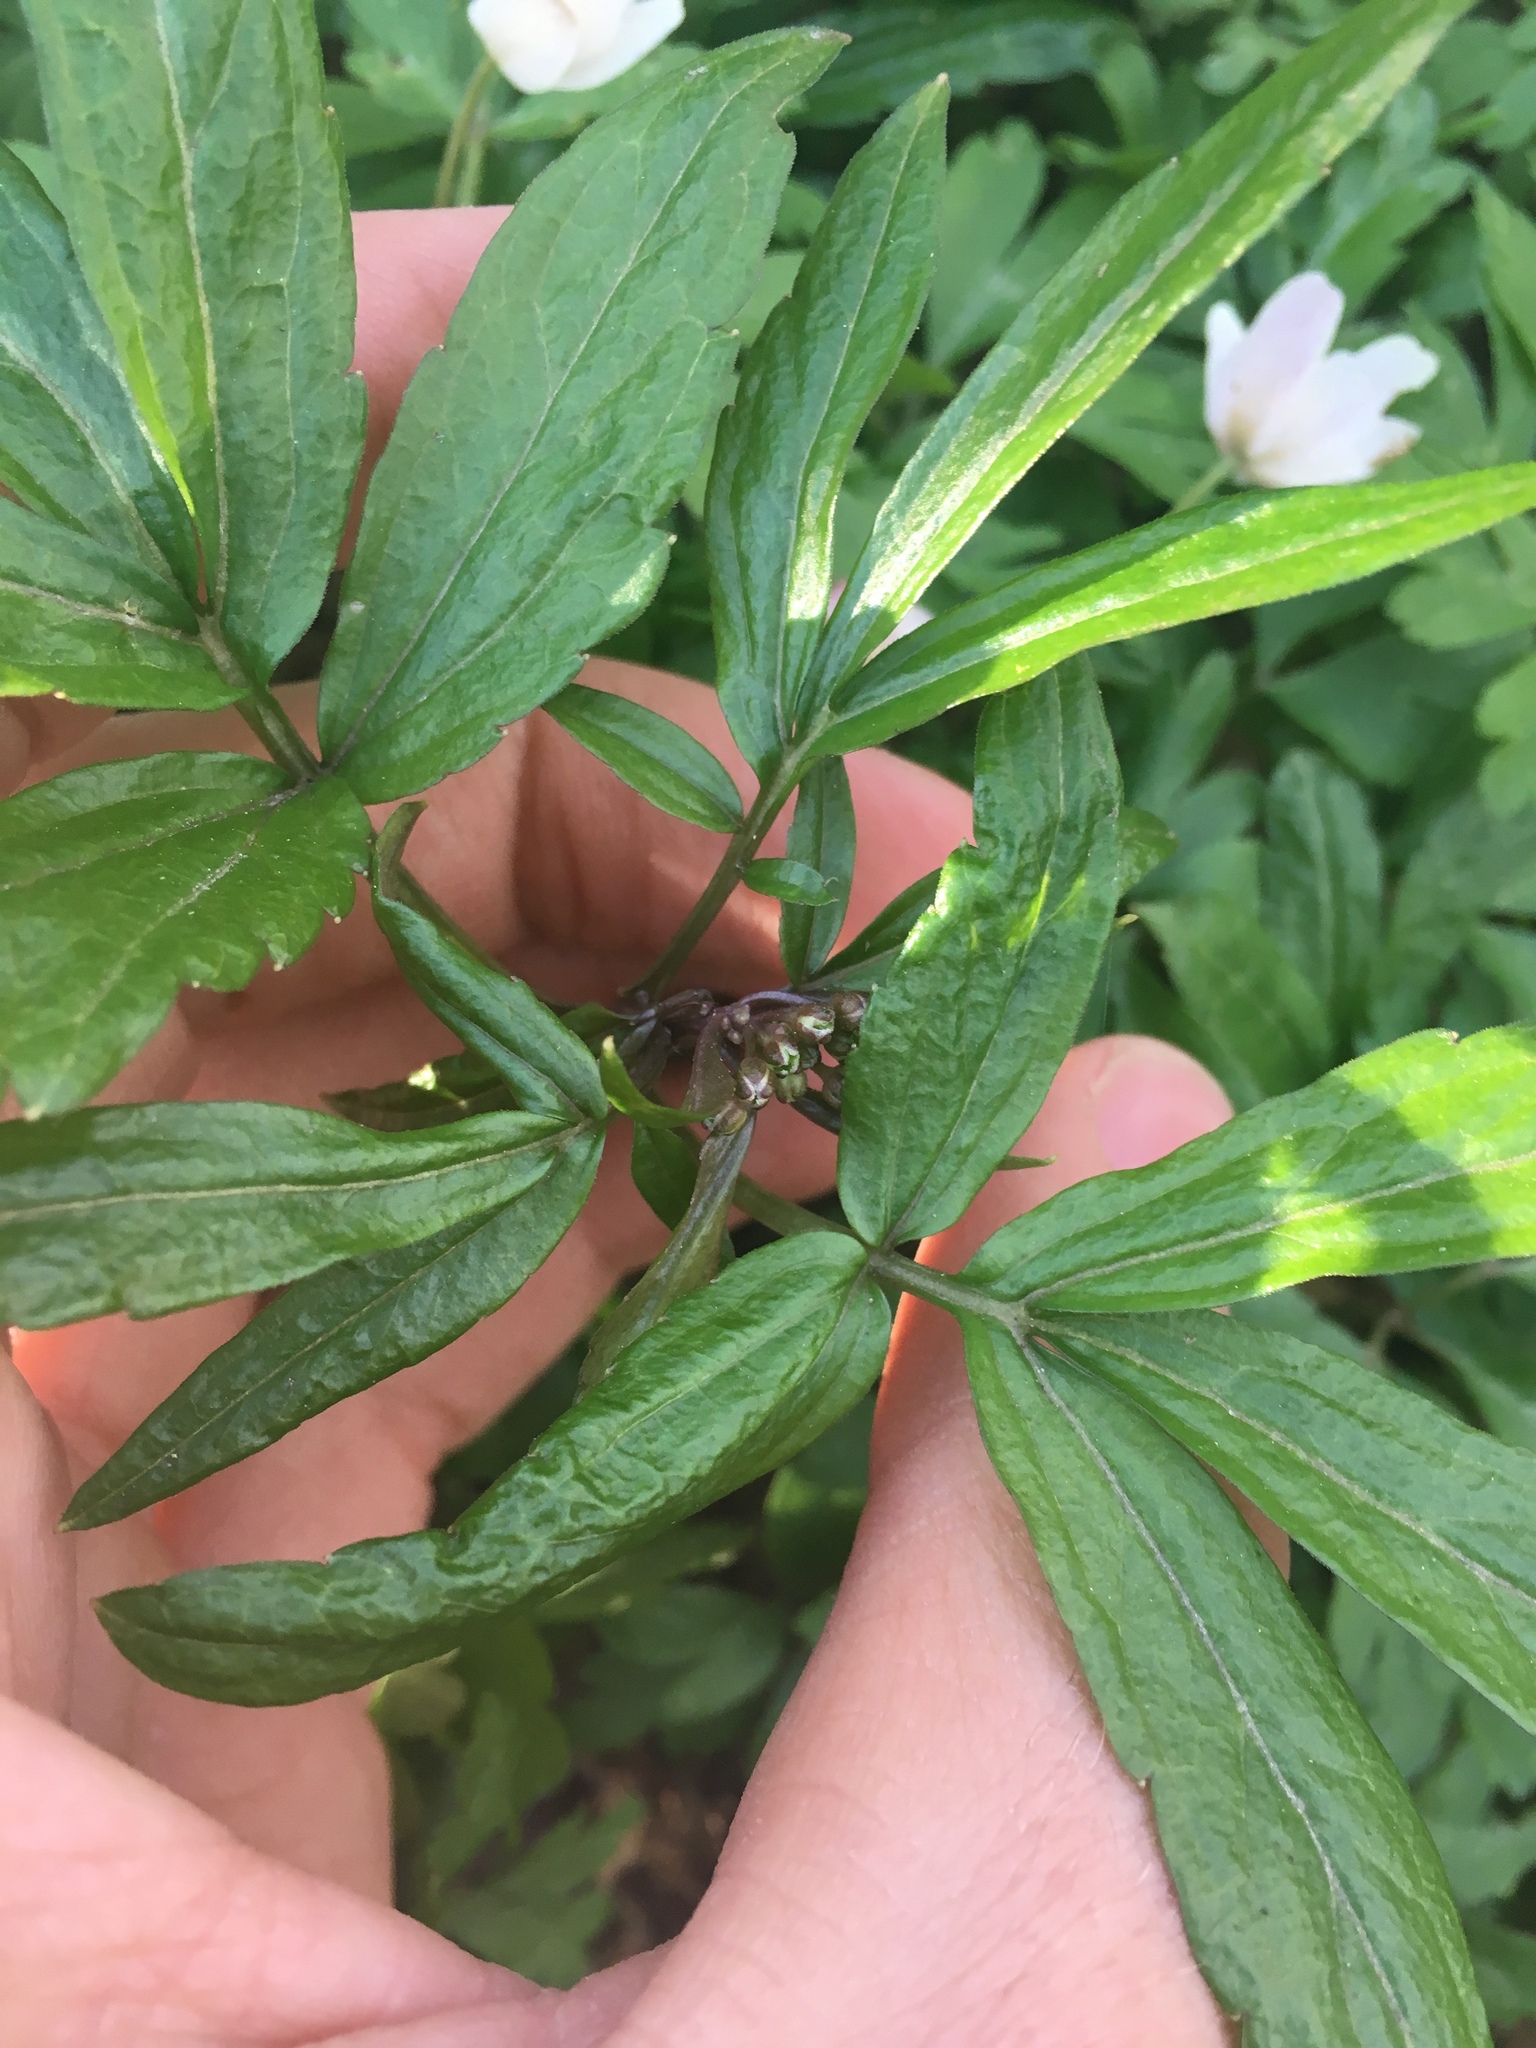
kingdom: Plantae
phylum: Tracheophyta
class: Magnoliopsida
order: Brassicales
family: Brassicaceae
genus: Cardamine
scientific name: Cardamine bulbifera
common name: Coralroot bittercress
